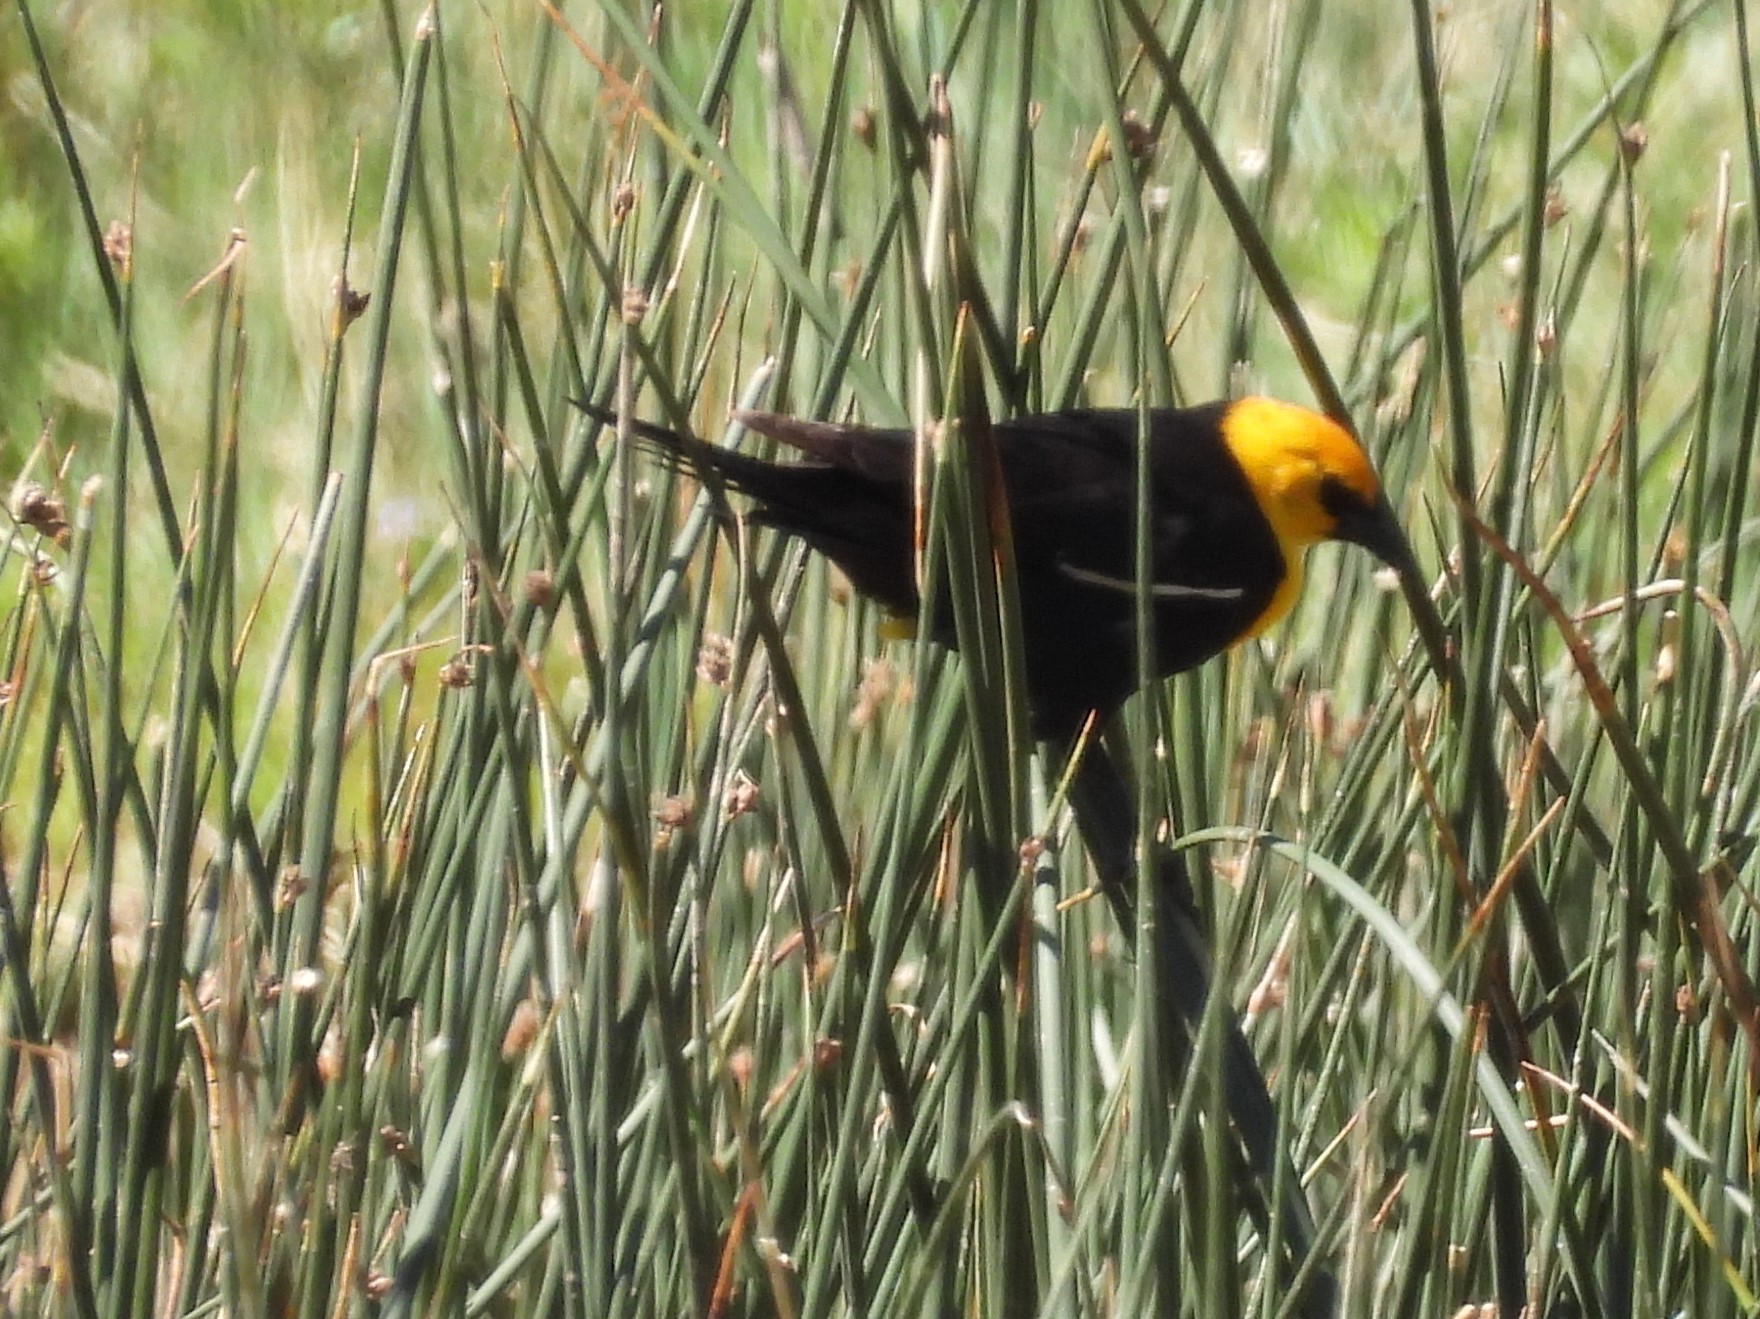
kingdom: Animalia
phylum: Chordata
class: Aves
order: Passeriformes
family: Icteridae
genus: Xanthocephalus
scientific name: Xanthocephalus xanthocephalus
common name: Yellow-headed blackbird
